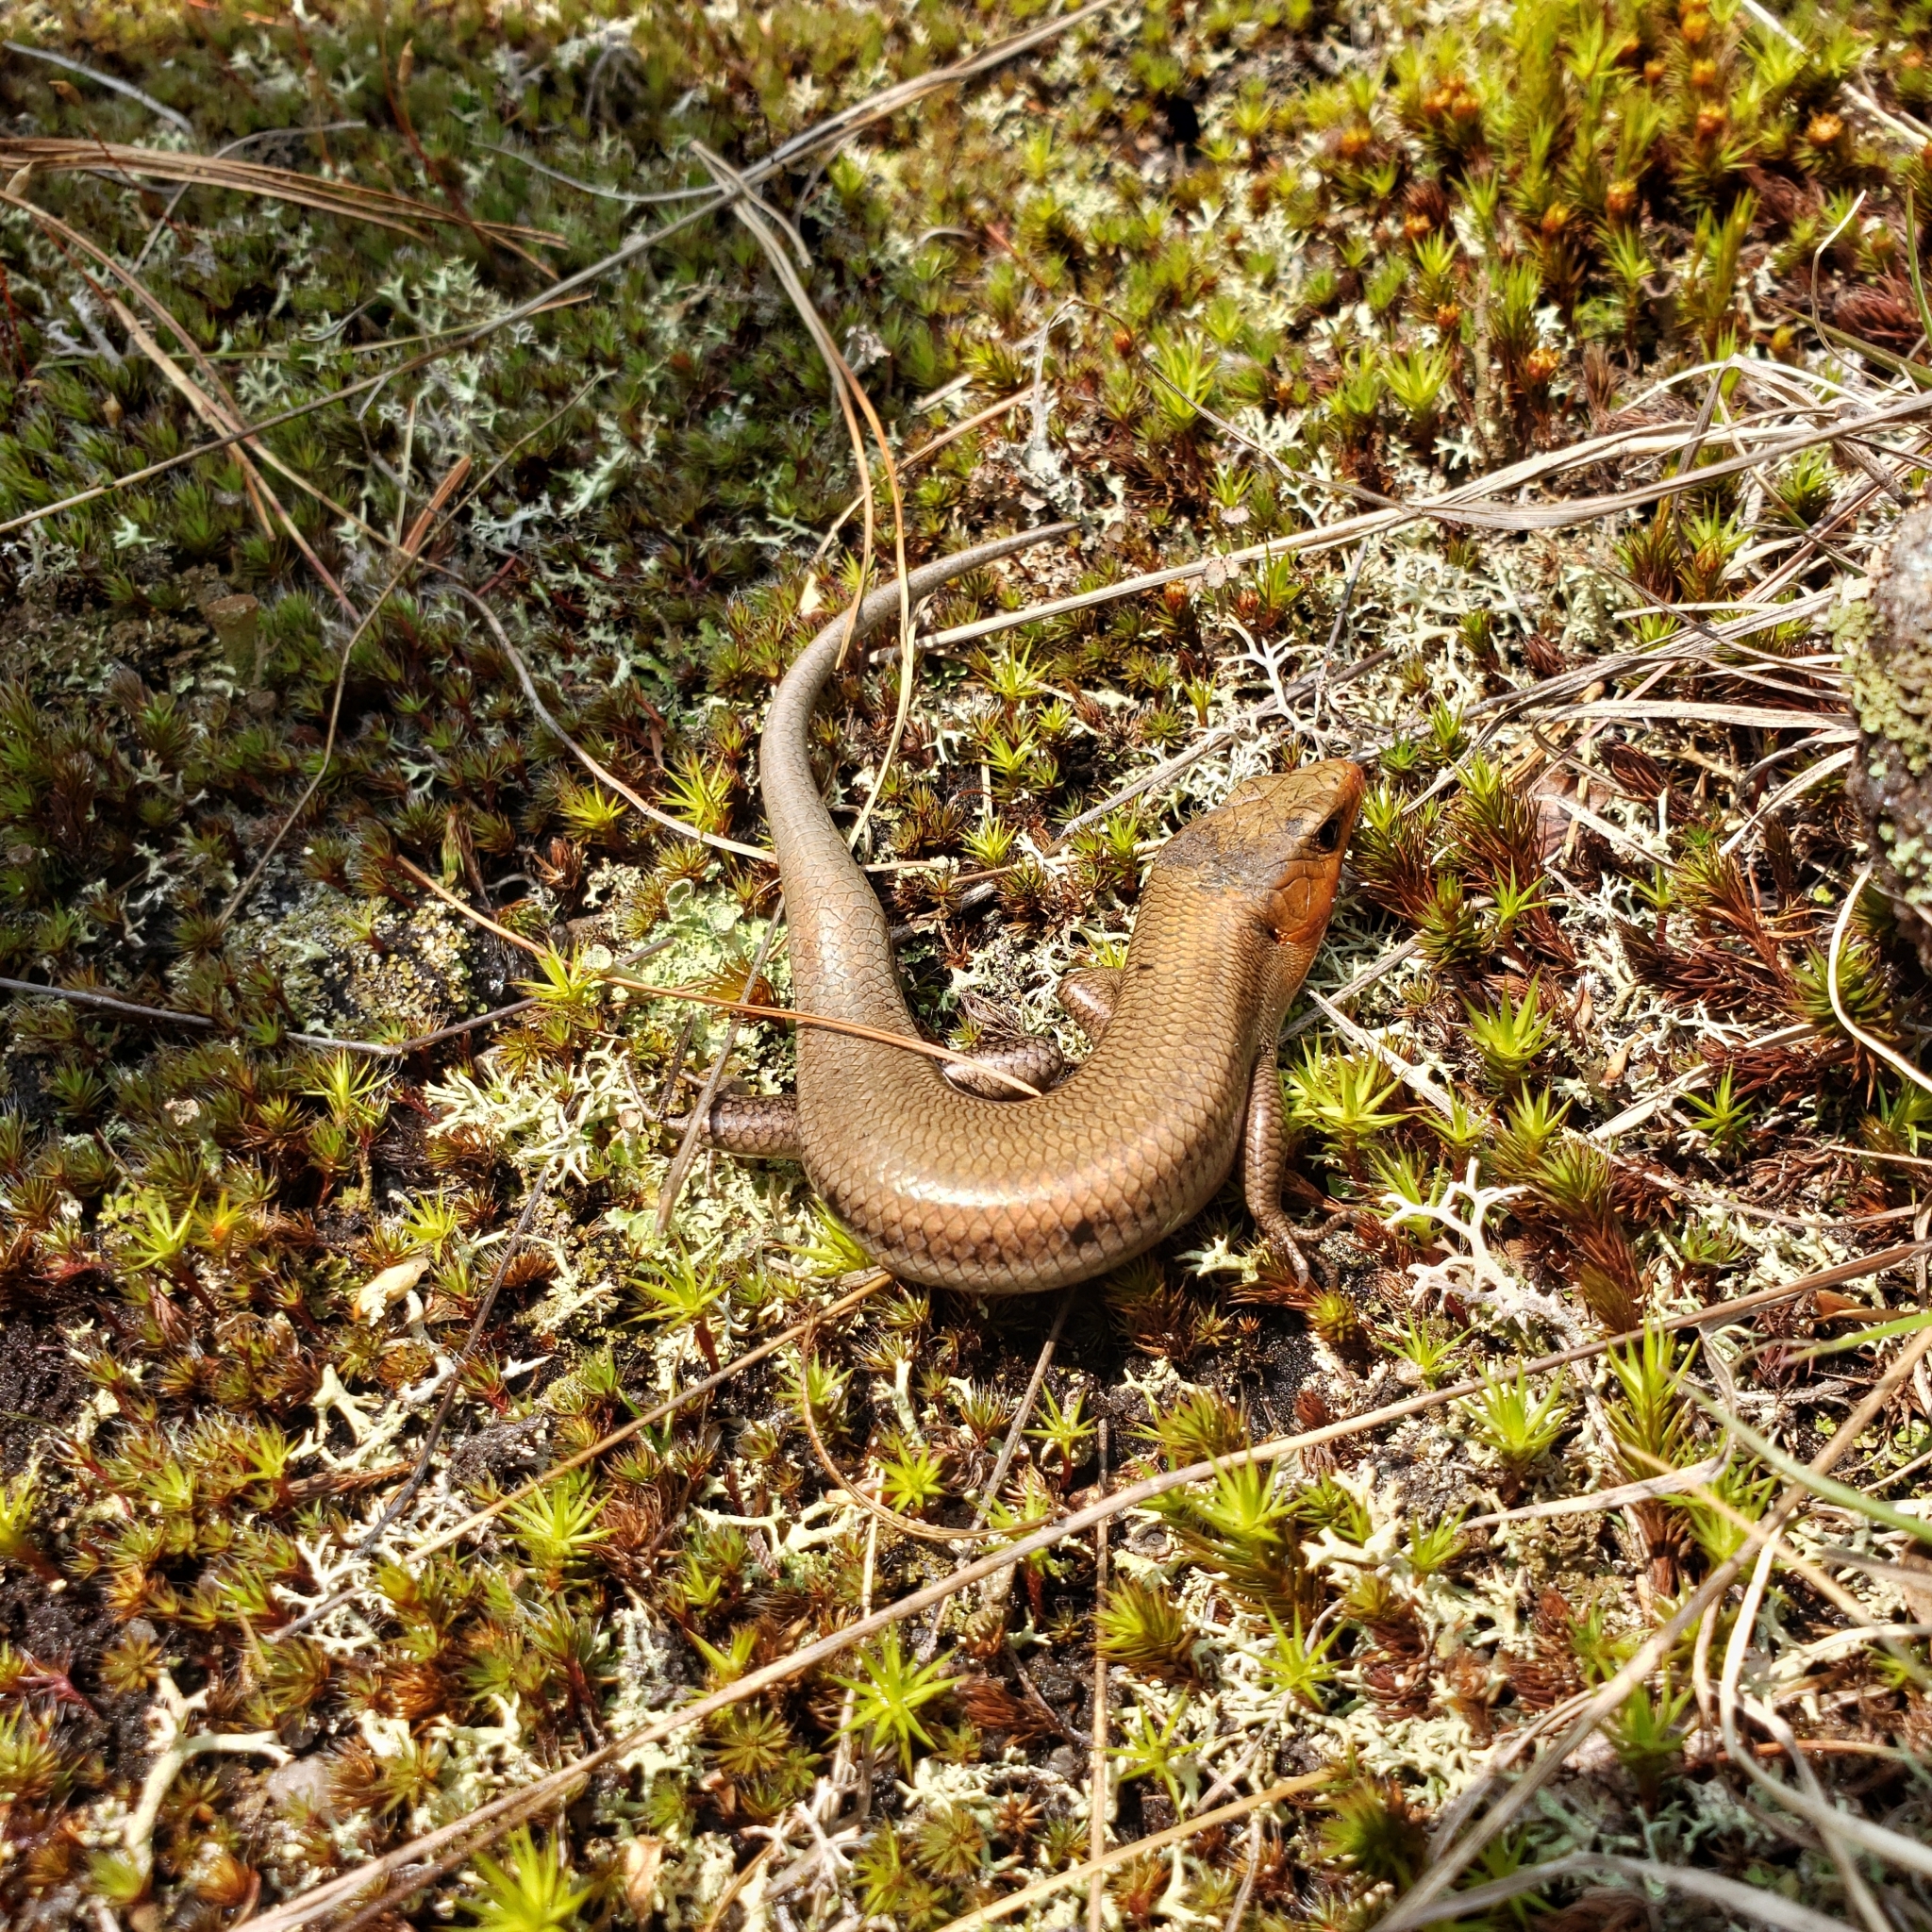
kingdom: Animalia
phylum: Chordata
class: Squamata
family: Scincidae
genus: Plestiodon
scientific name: Plestiodon fasciatus
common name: Five-lined skink
